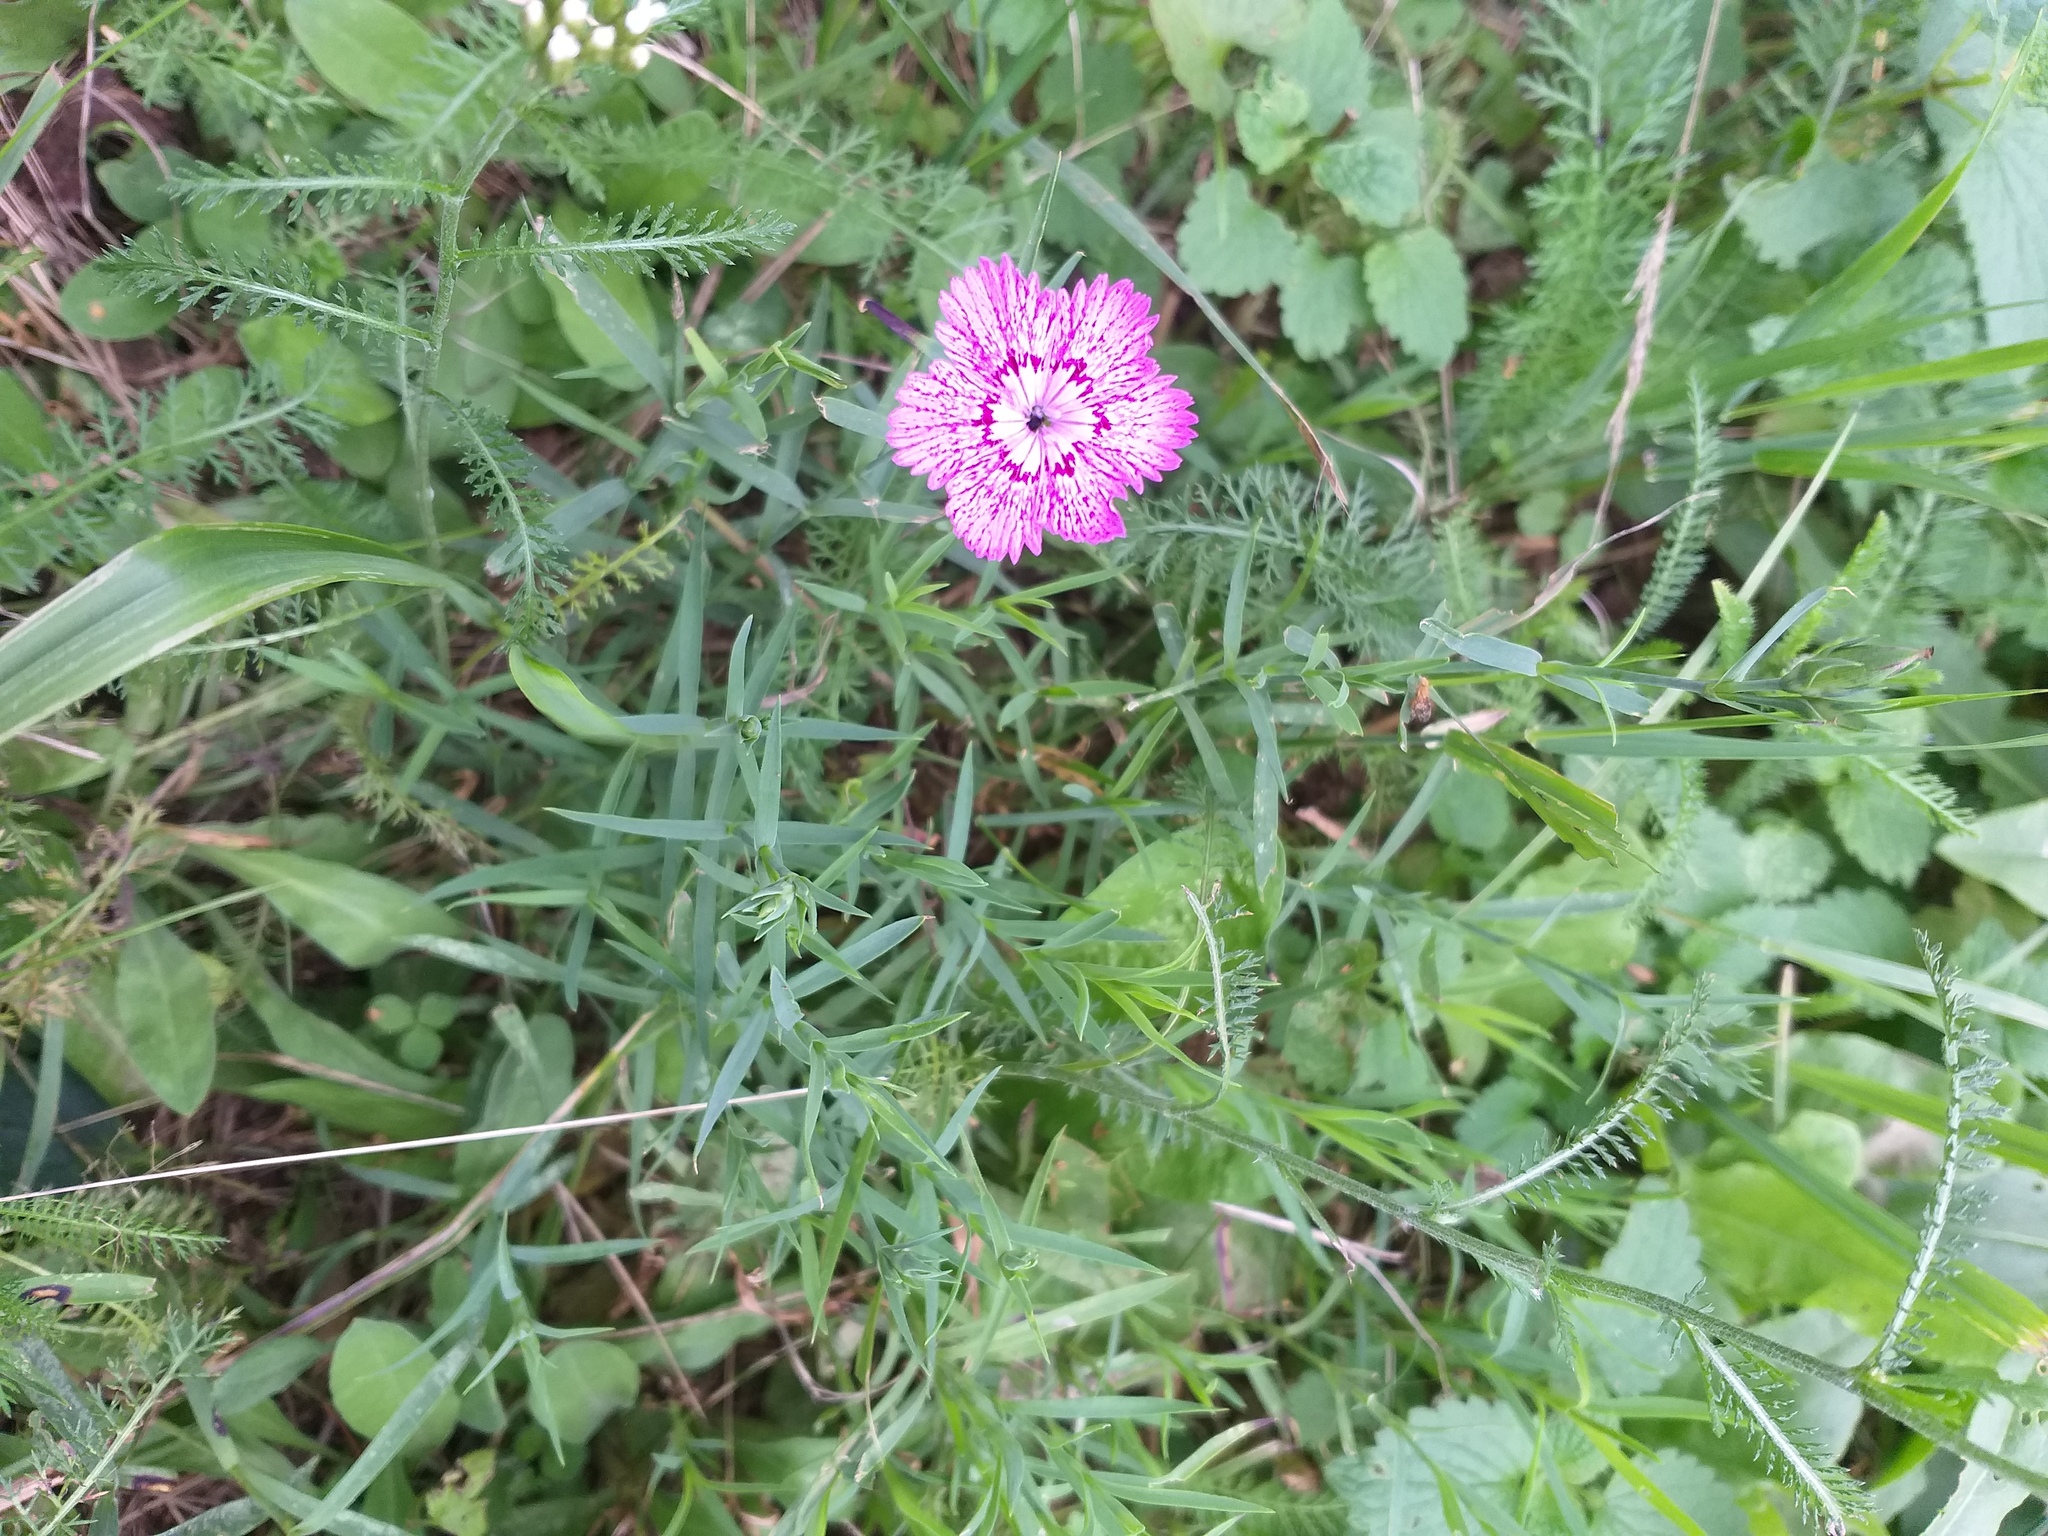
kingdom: Plantae
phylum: Tracheophyta
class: Magnoliopsida
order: Caryophyllales
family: Caryophyllaceae
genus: Dianthus
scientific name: Dianthus chinensis
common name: Rainbow pink
